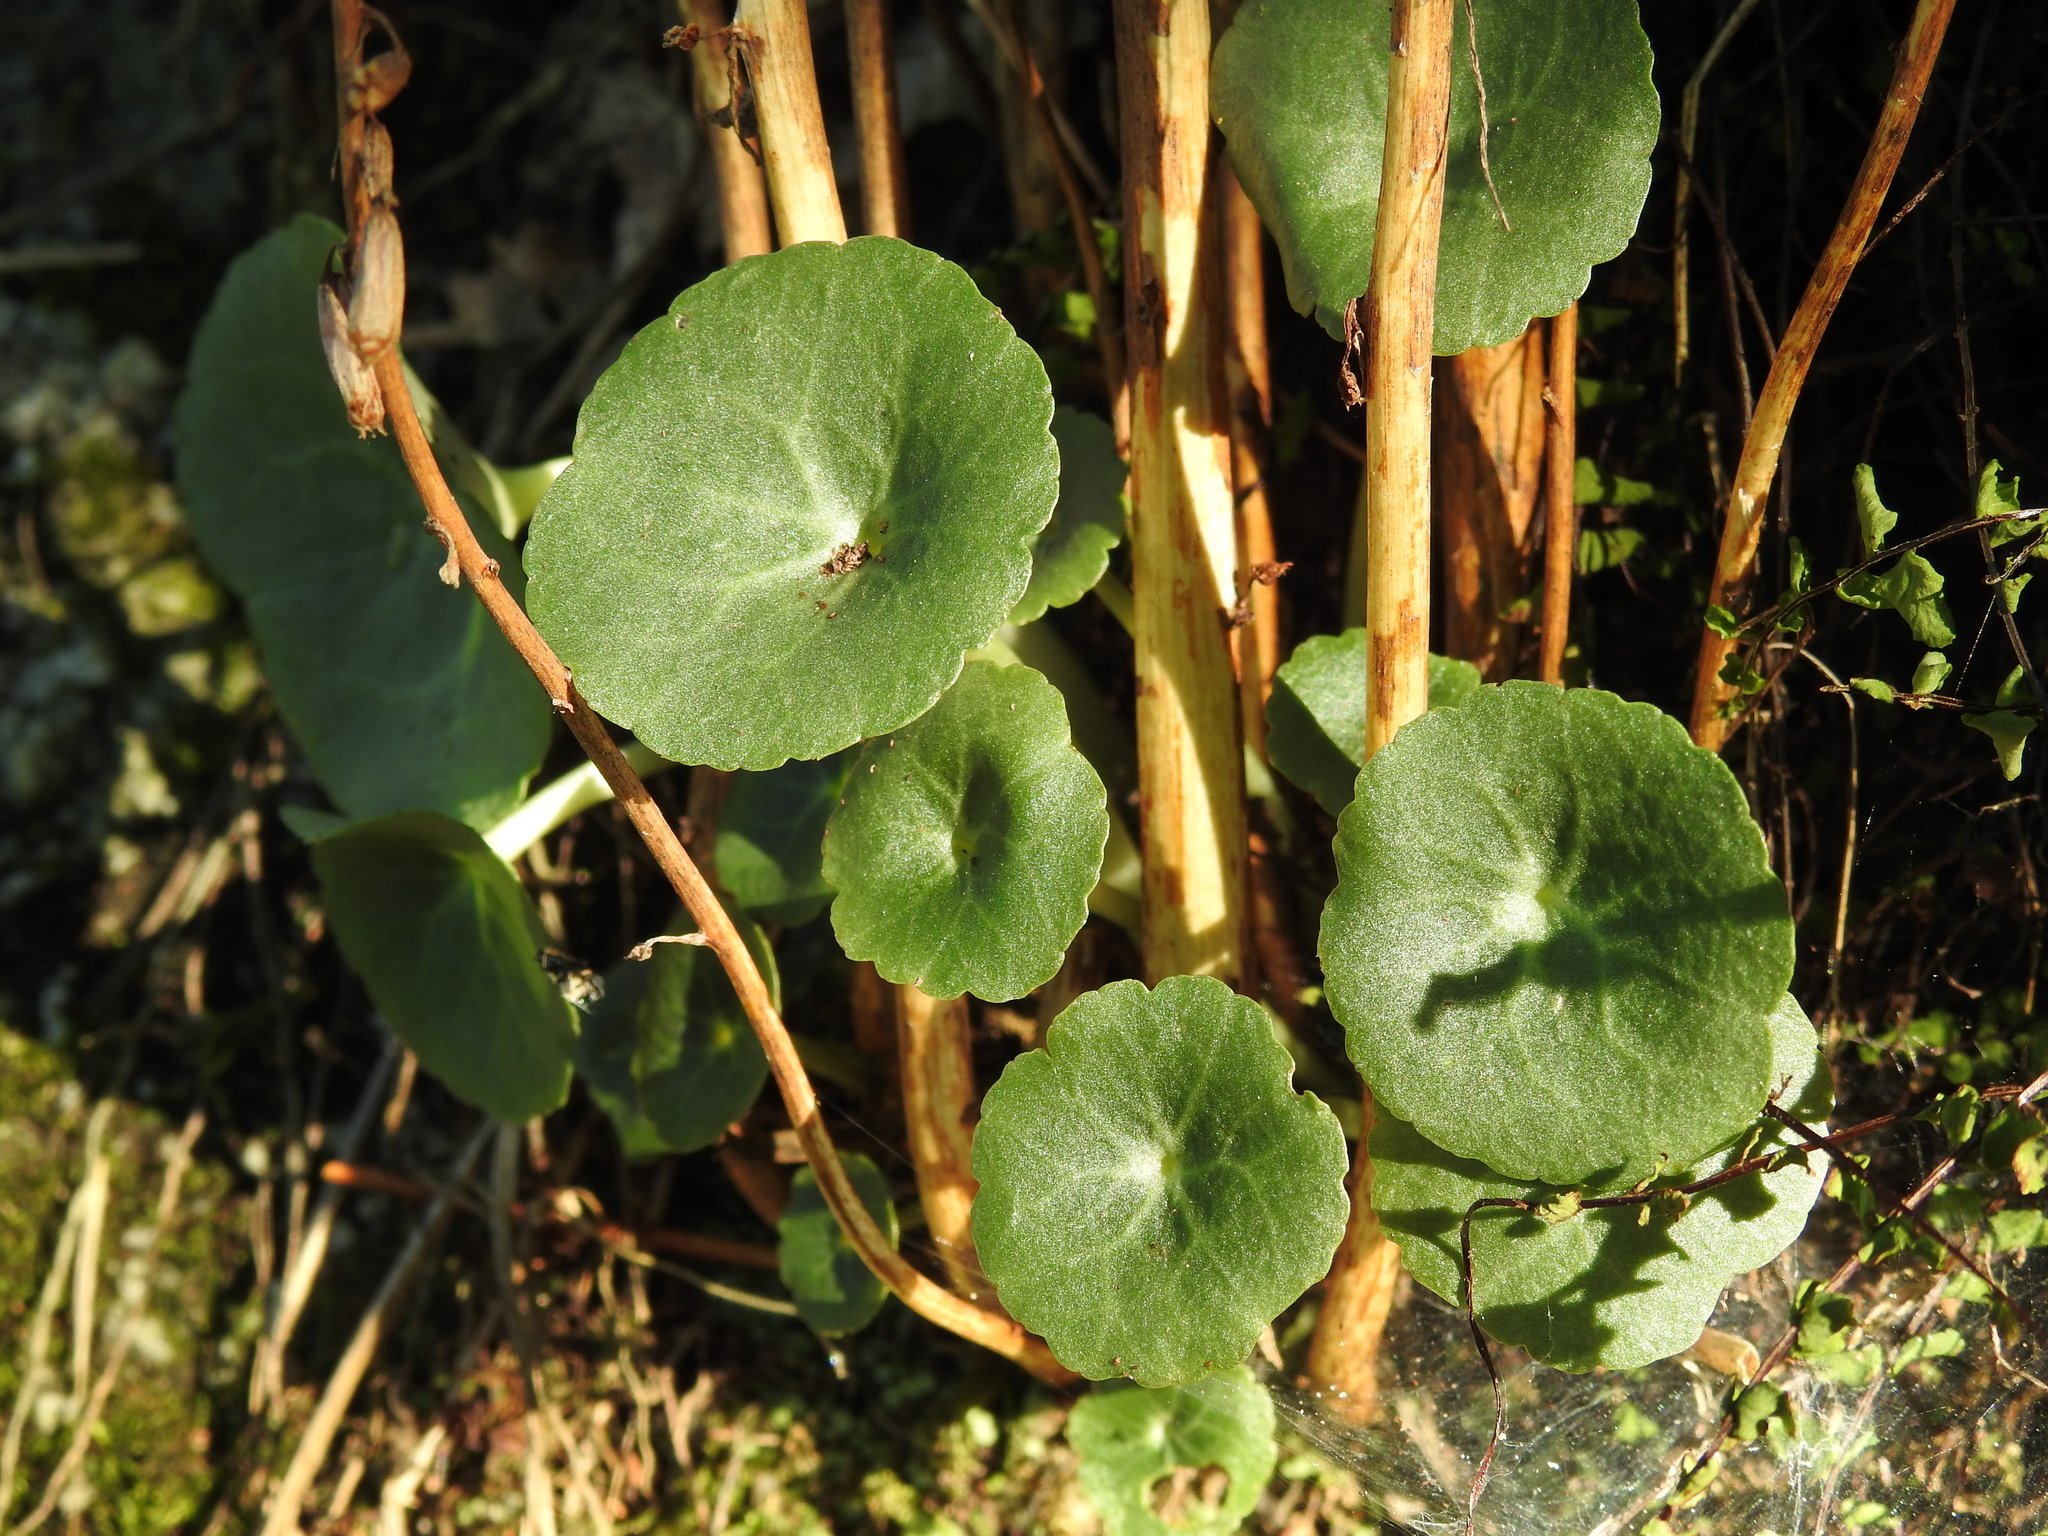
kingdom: Plantae
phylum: Tracheophyta
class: Magnoliopsida
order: Saxifragales
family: Crassulaceae
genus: Umbilicus
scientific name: Umbilicus rupestris
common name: Navelwort
